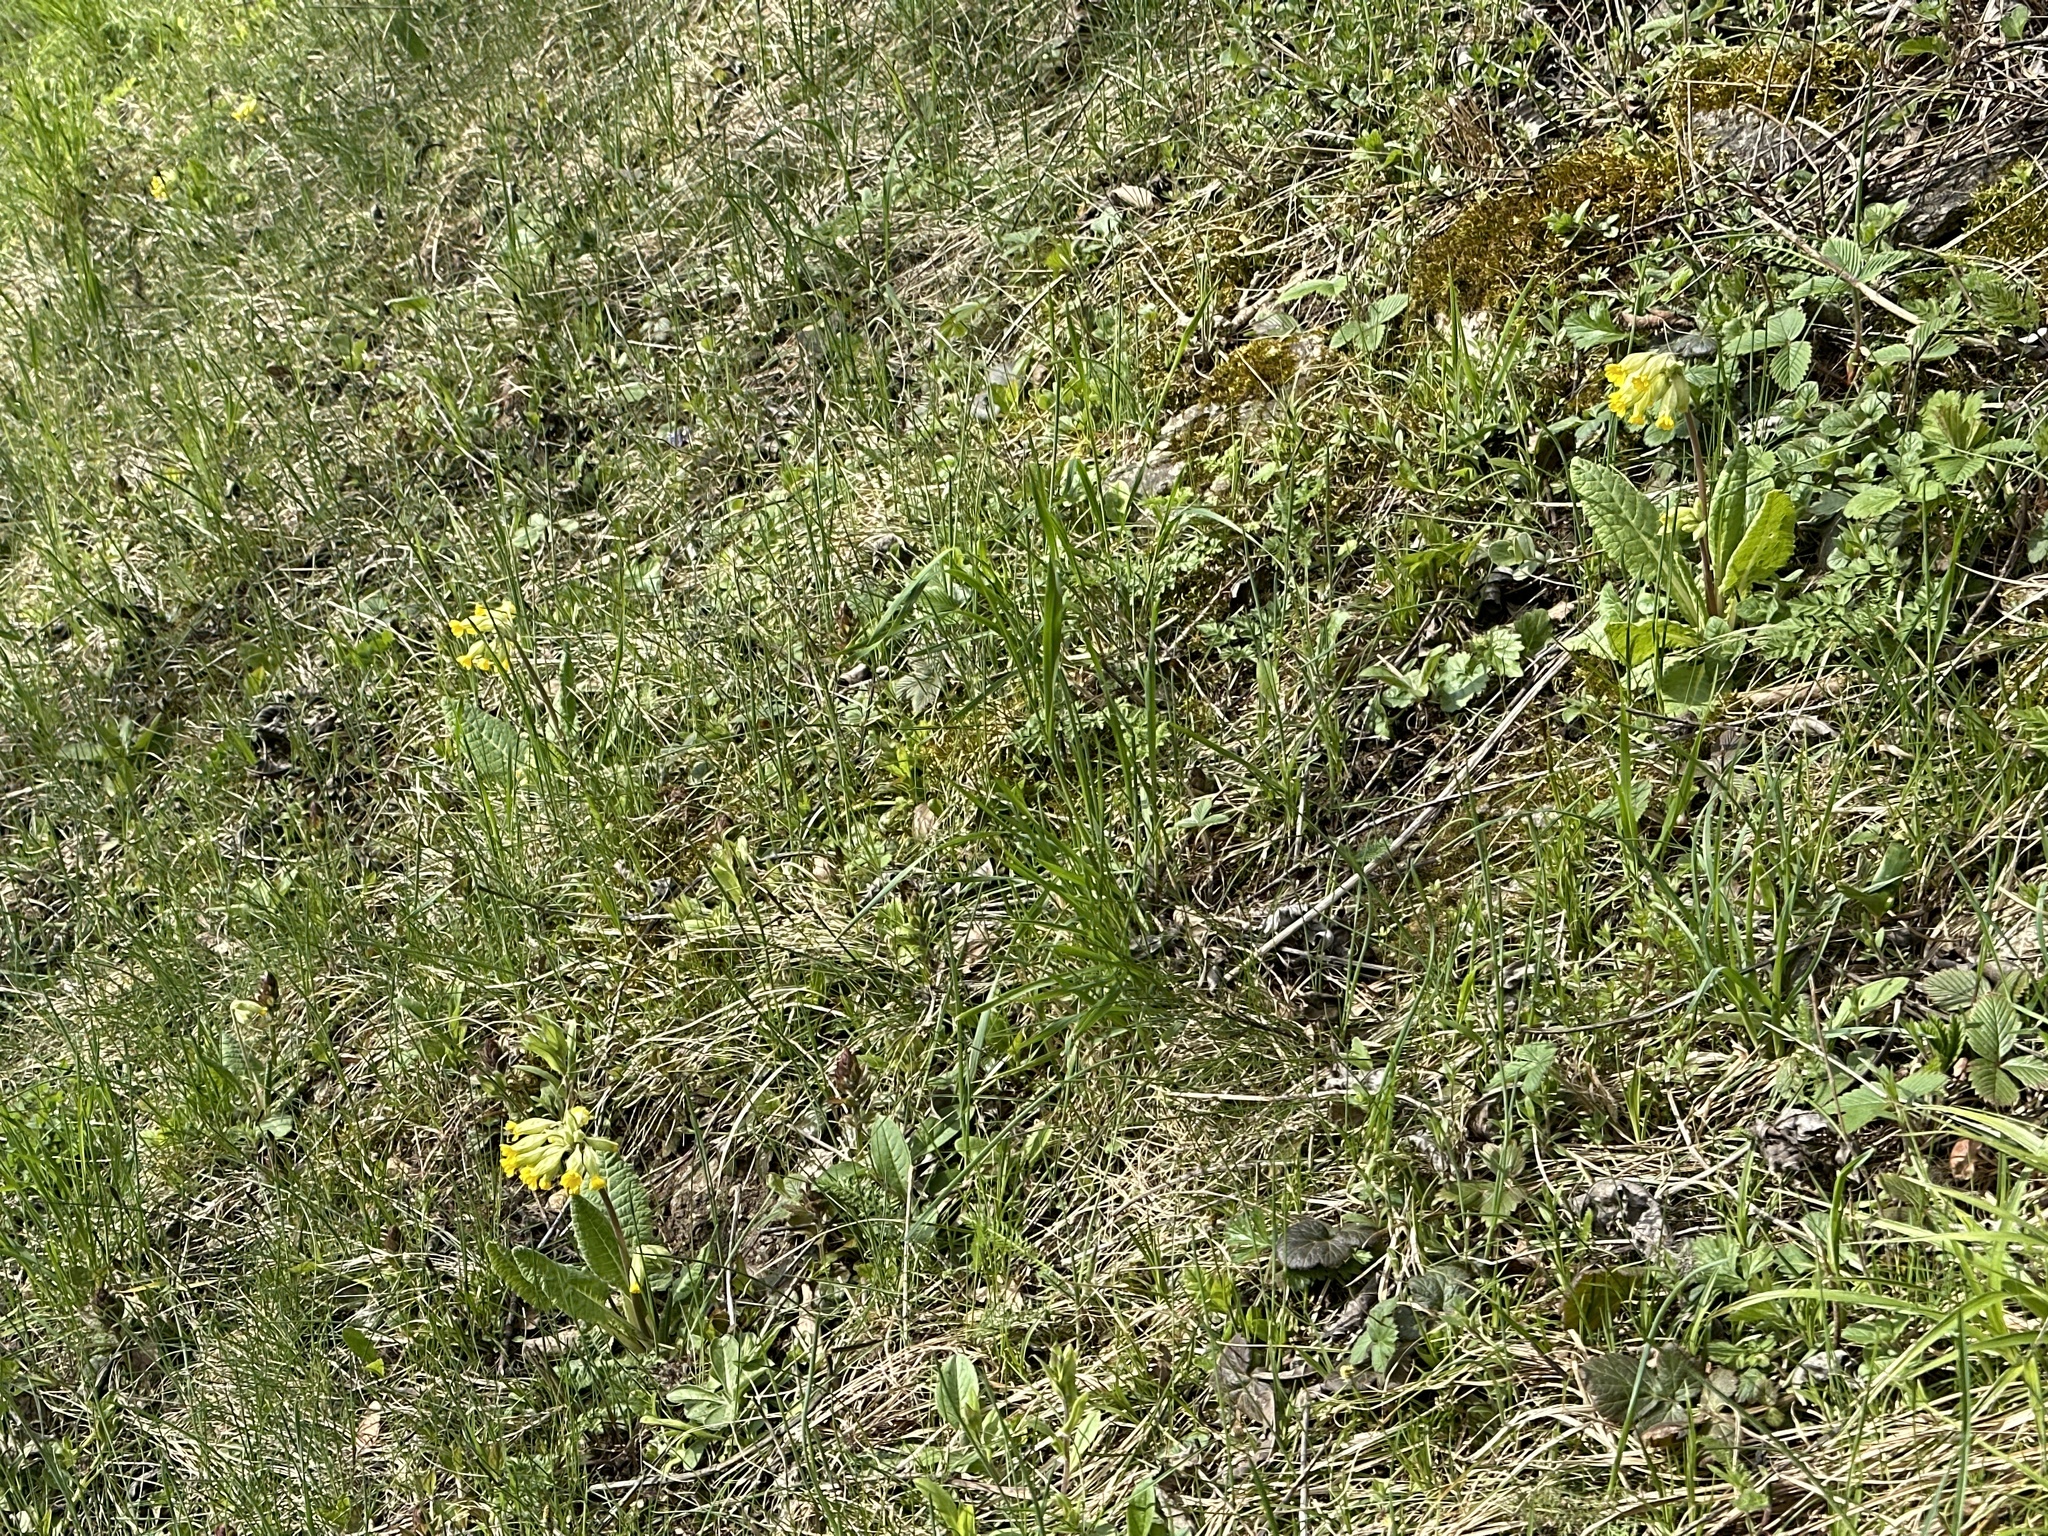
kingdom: Plantae
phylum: Tracheophyta
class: Magnoliopsida
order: Ericales
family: Primulaceae
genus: Primula
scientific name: Primula veris
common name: Cowslip
